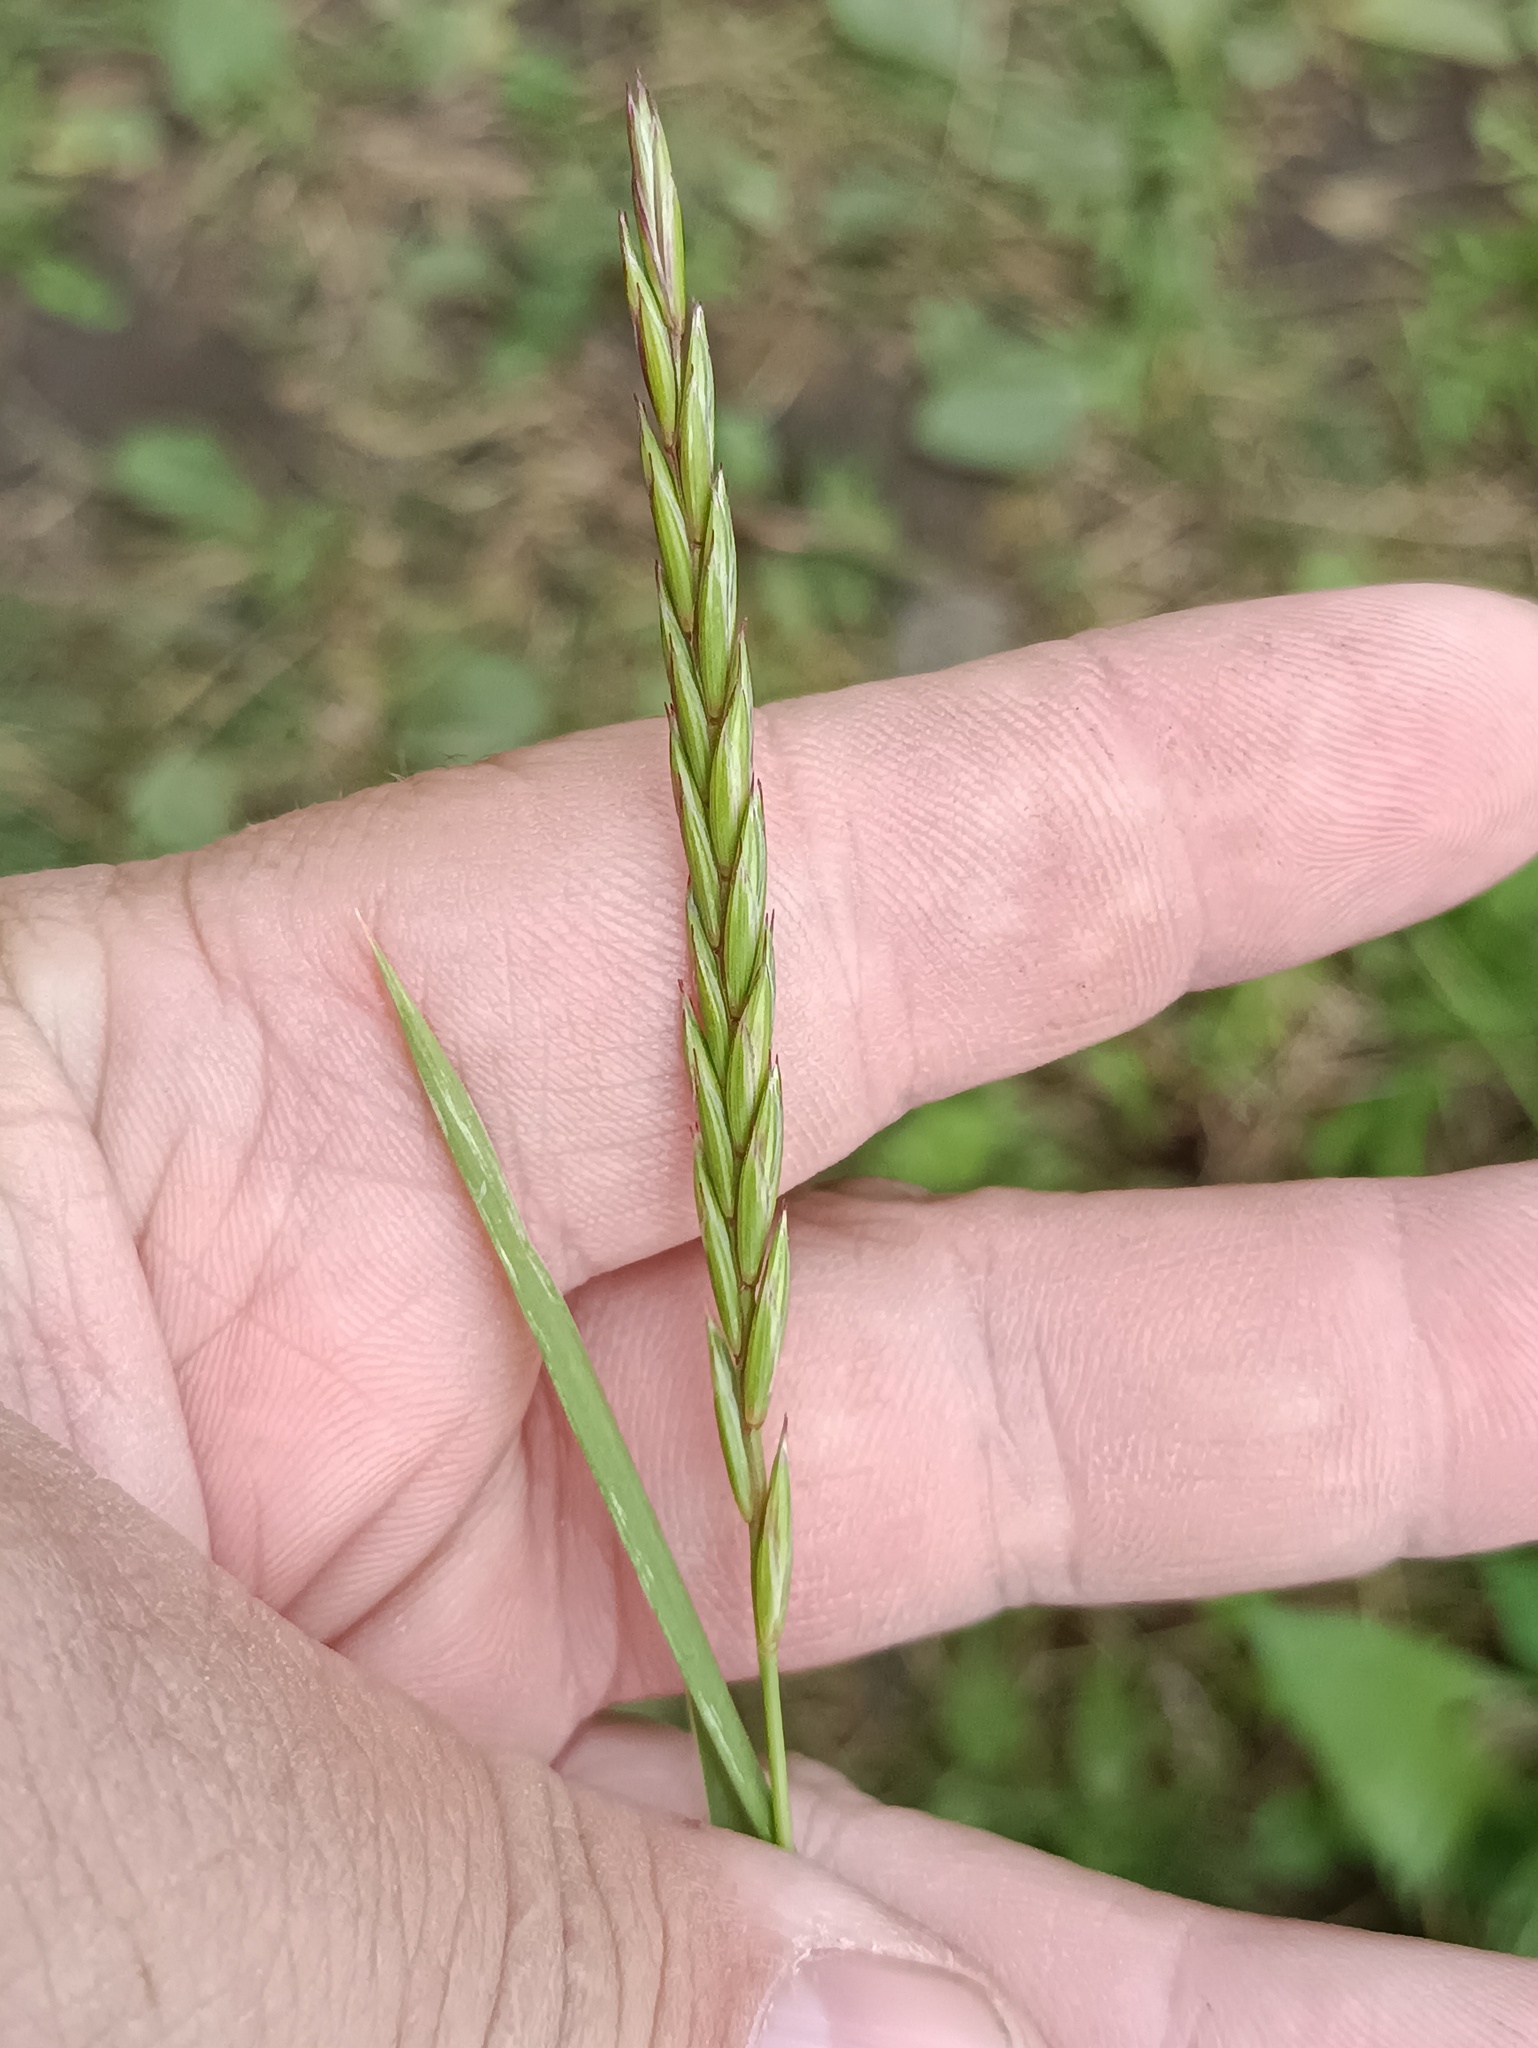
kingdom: Plantae
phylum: Tracheophyta
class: Liliopsida
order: Poales
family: Poaceae
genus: Elymus
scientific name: Elymus repens
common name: Quackgrass
